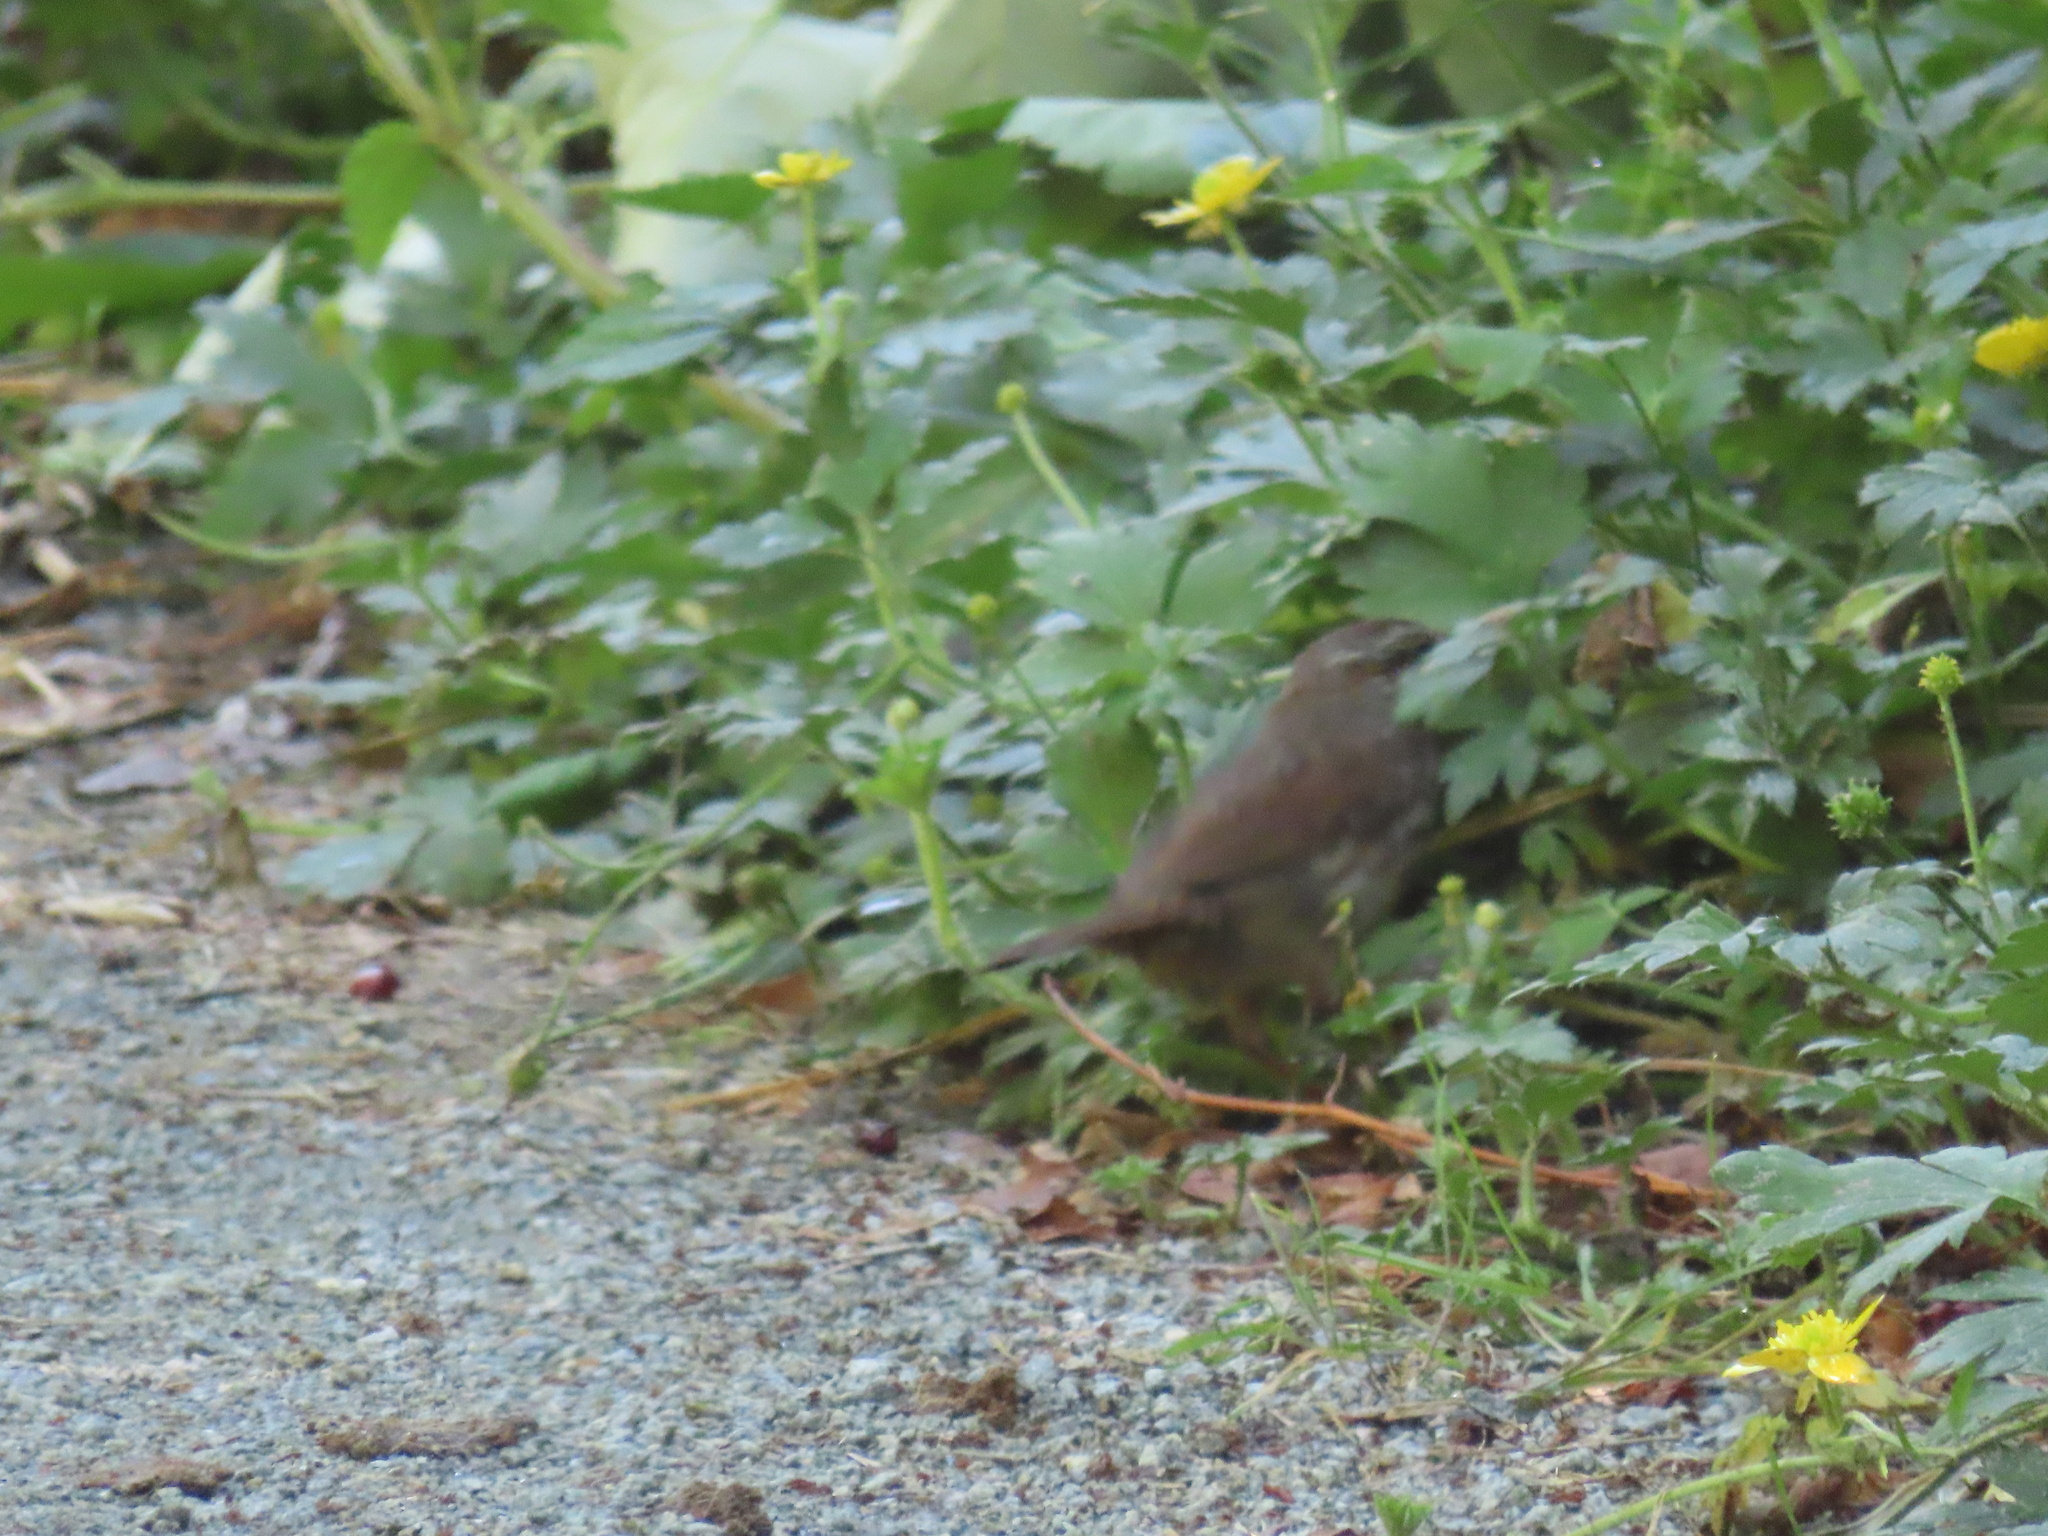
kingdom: Animalia
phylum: Chordata
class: Aves
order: Passeriformes
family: Passerellidae
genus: Melospiza
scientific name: Melospiza melodia
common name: Song sparrow
